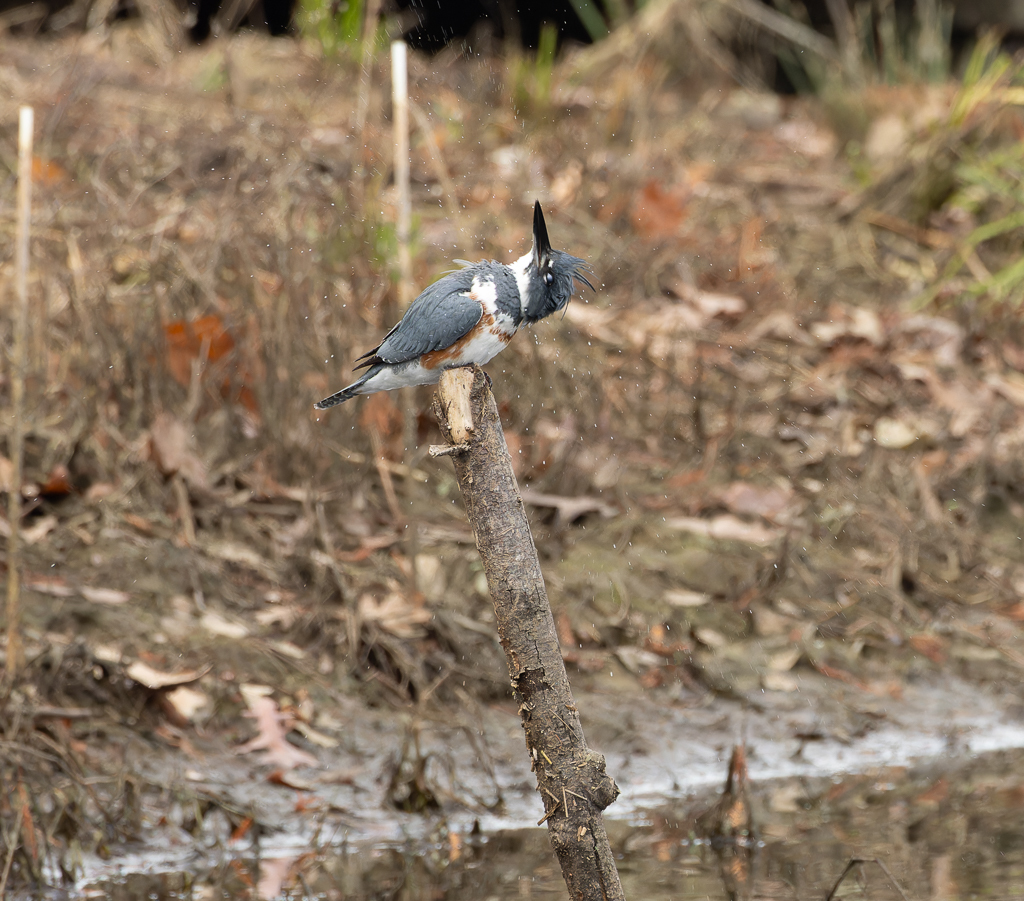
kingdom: Animalia
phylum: Chordata
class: Aves
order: Coraciiformes
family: Alcedinidae
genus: Megaceryle
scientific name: Megaceryle alcyon
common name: Belted kingfisher
